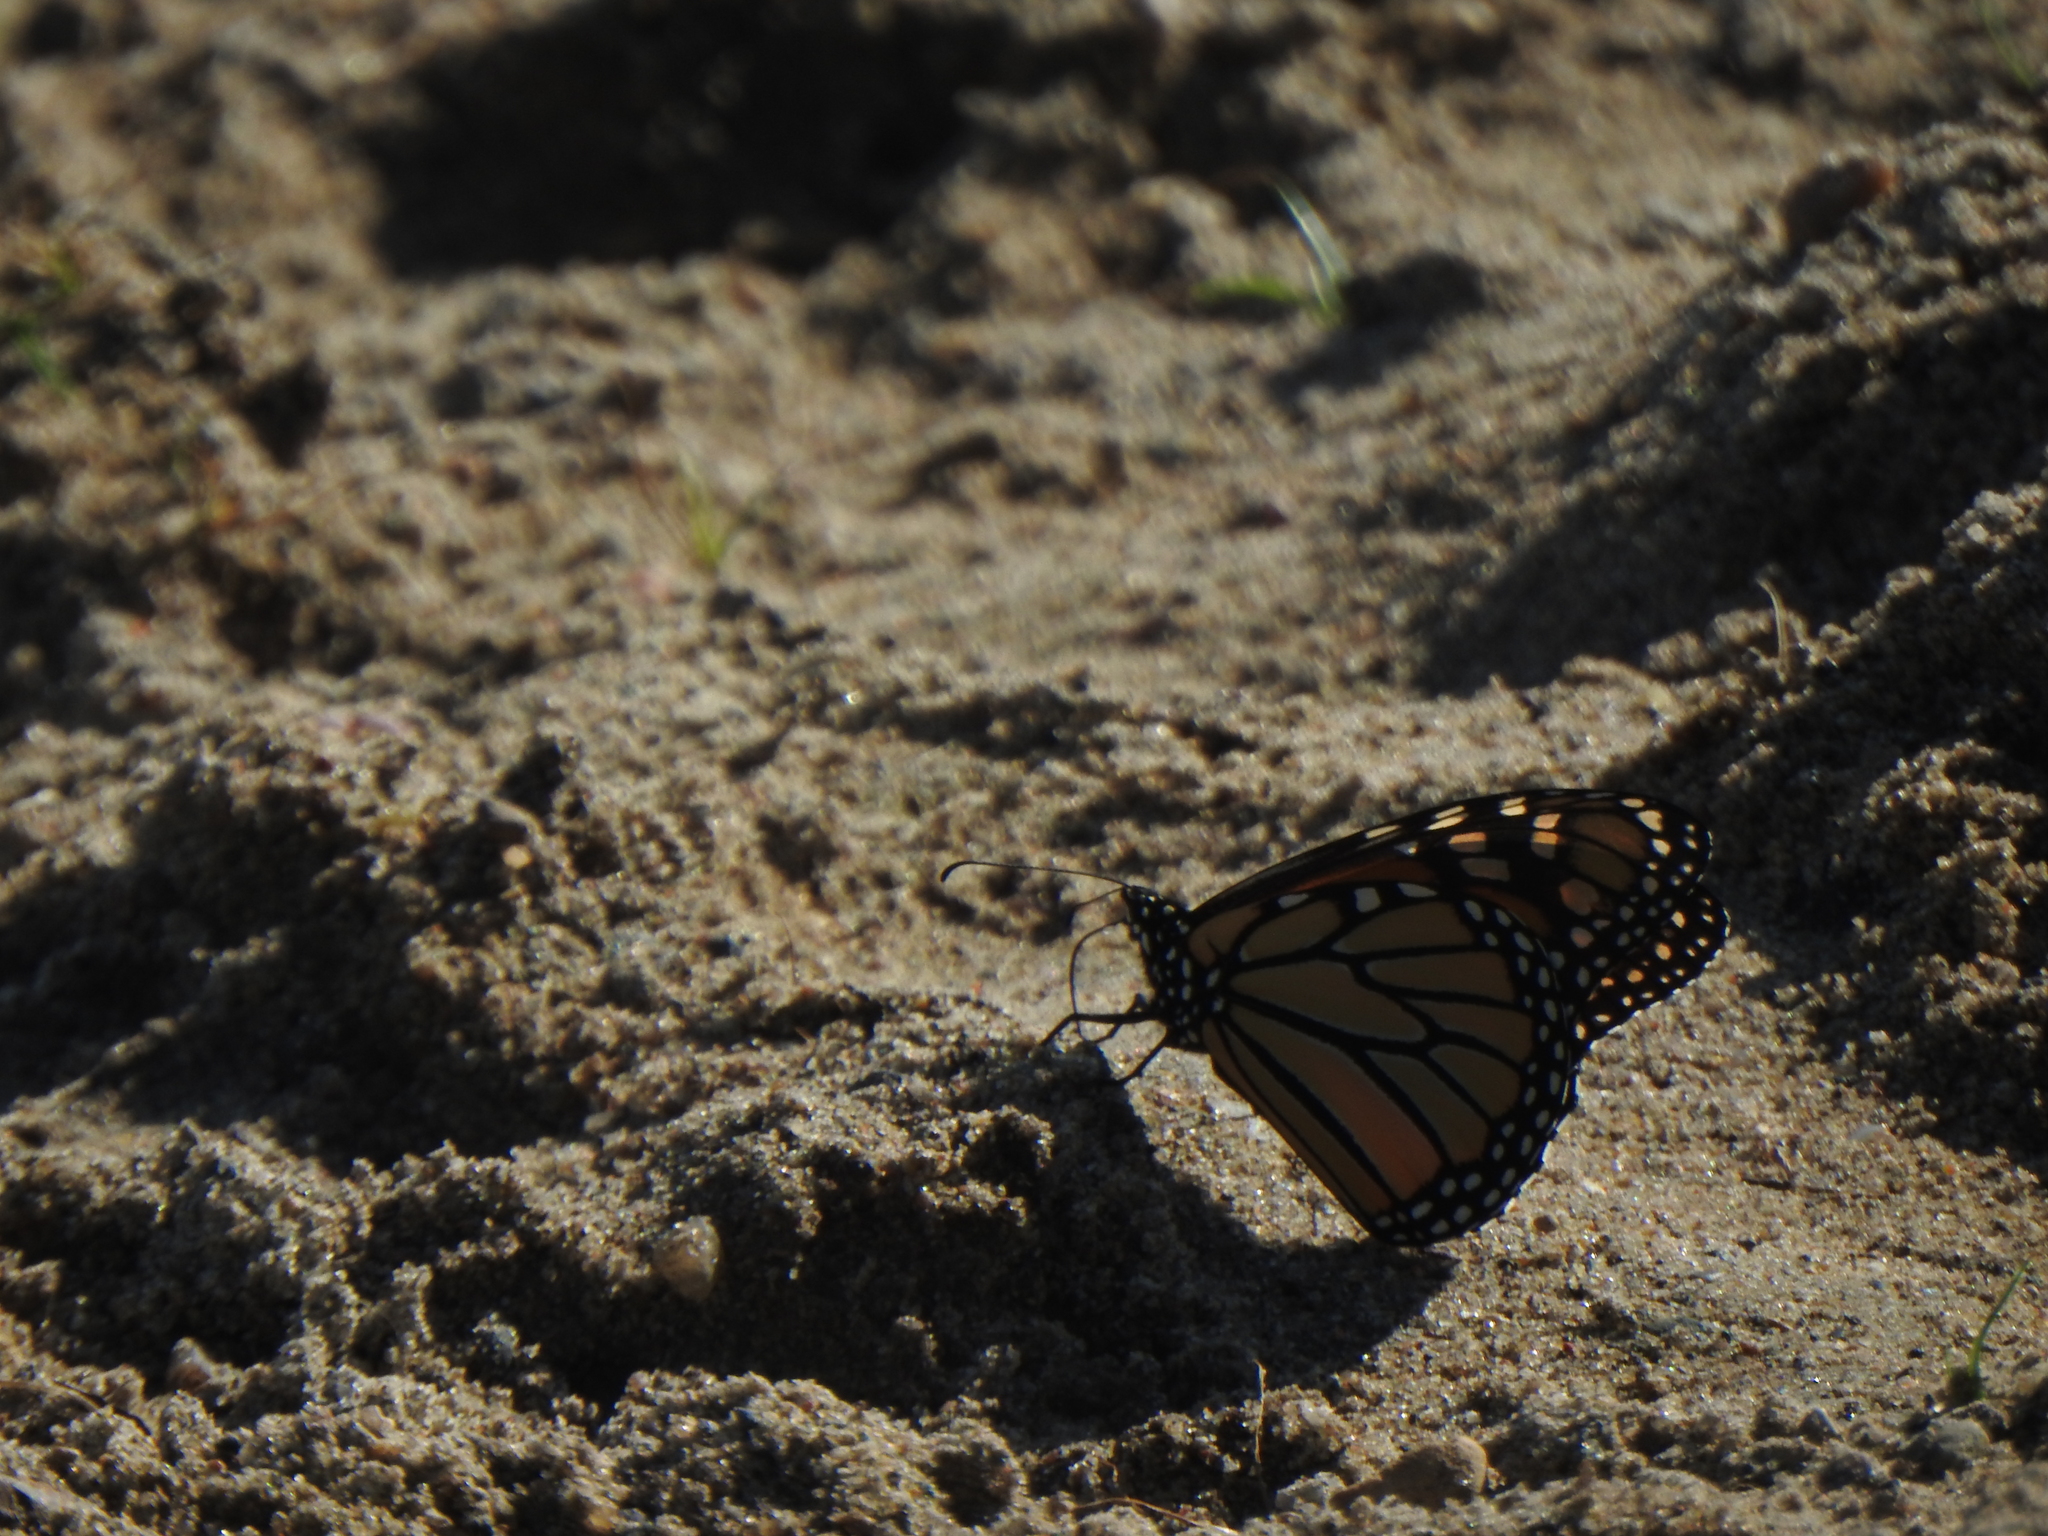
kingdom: Animalia
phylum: Arthropoda
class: Insecta
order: Lepidoptera
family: Nymphalidae
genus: Danaus
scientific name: Danaus plexippus
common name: Monarch
